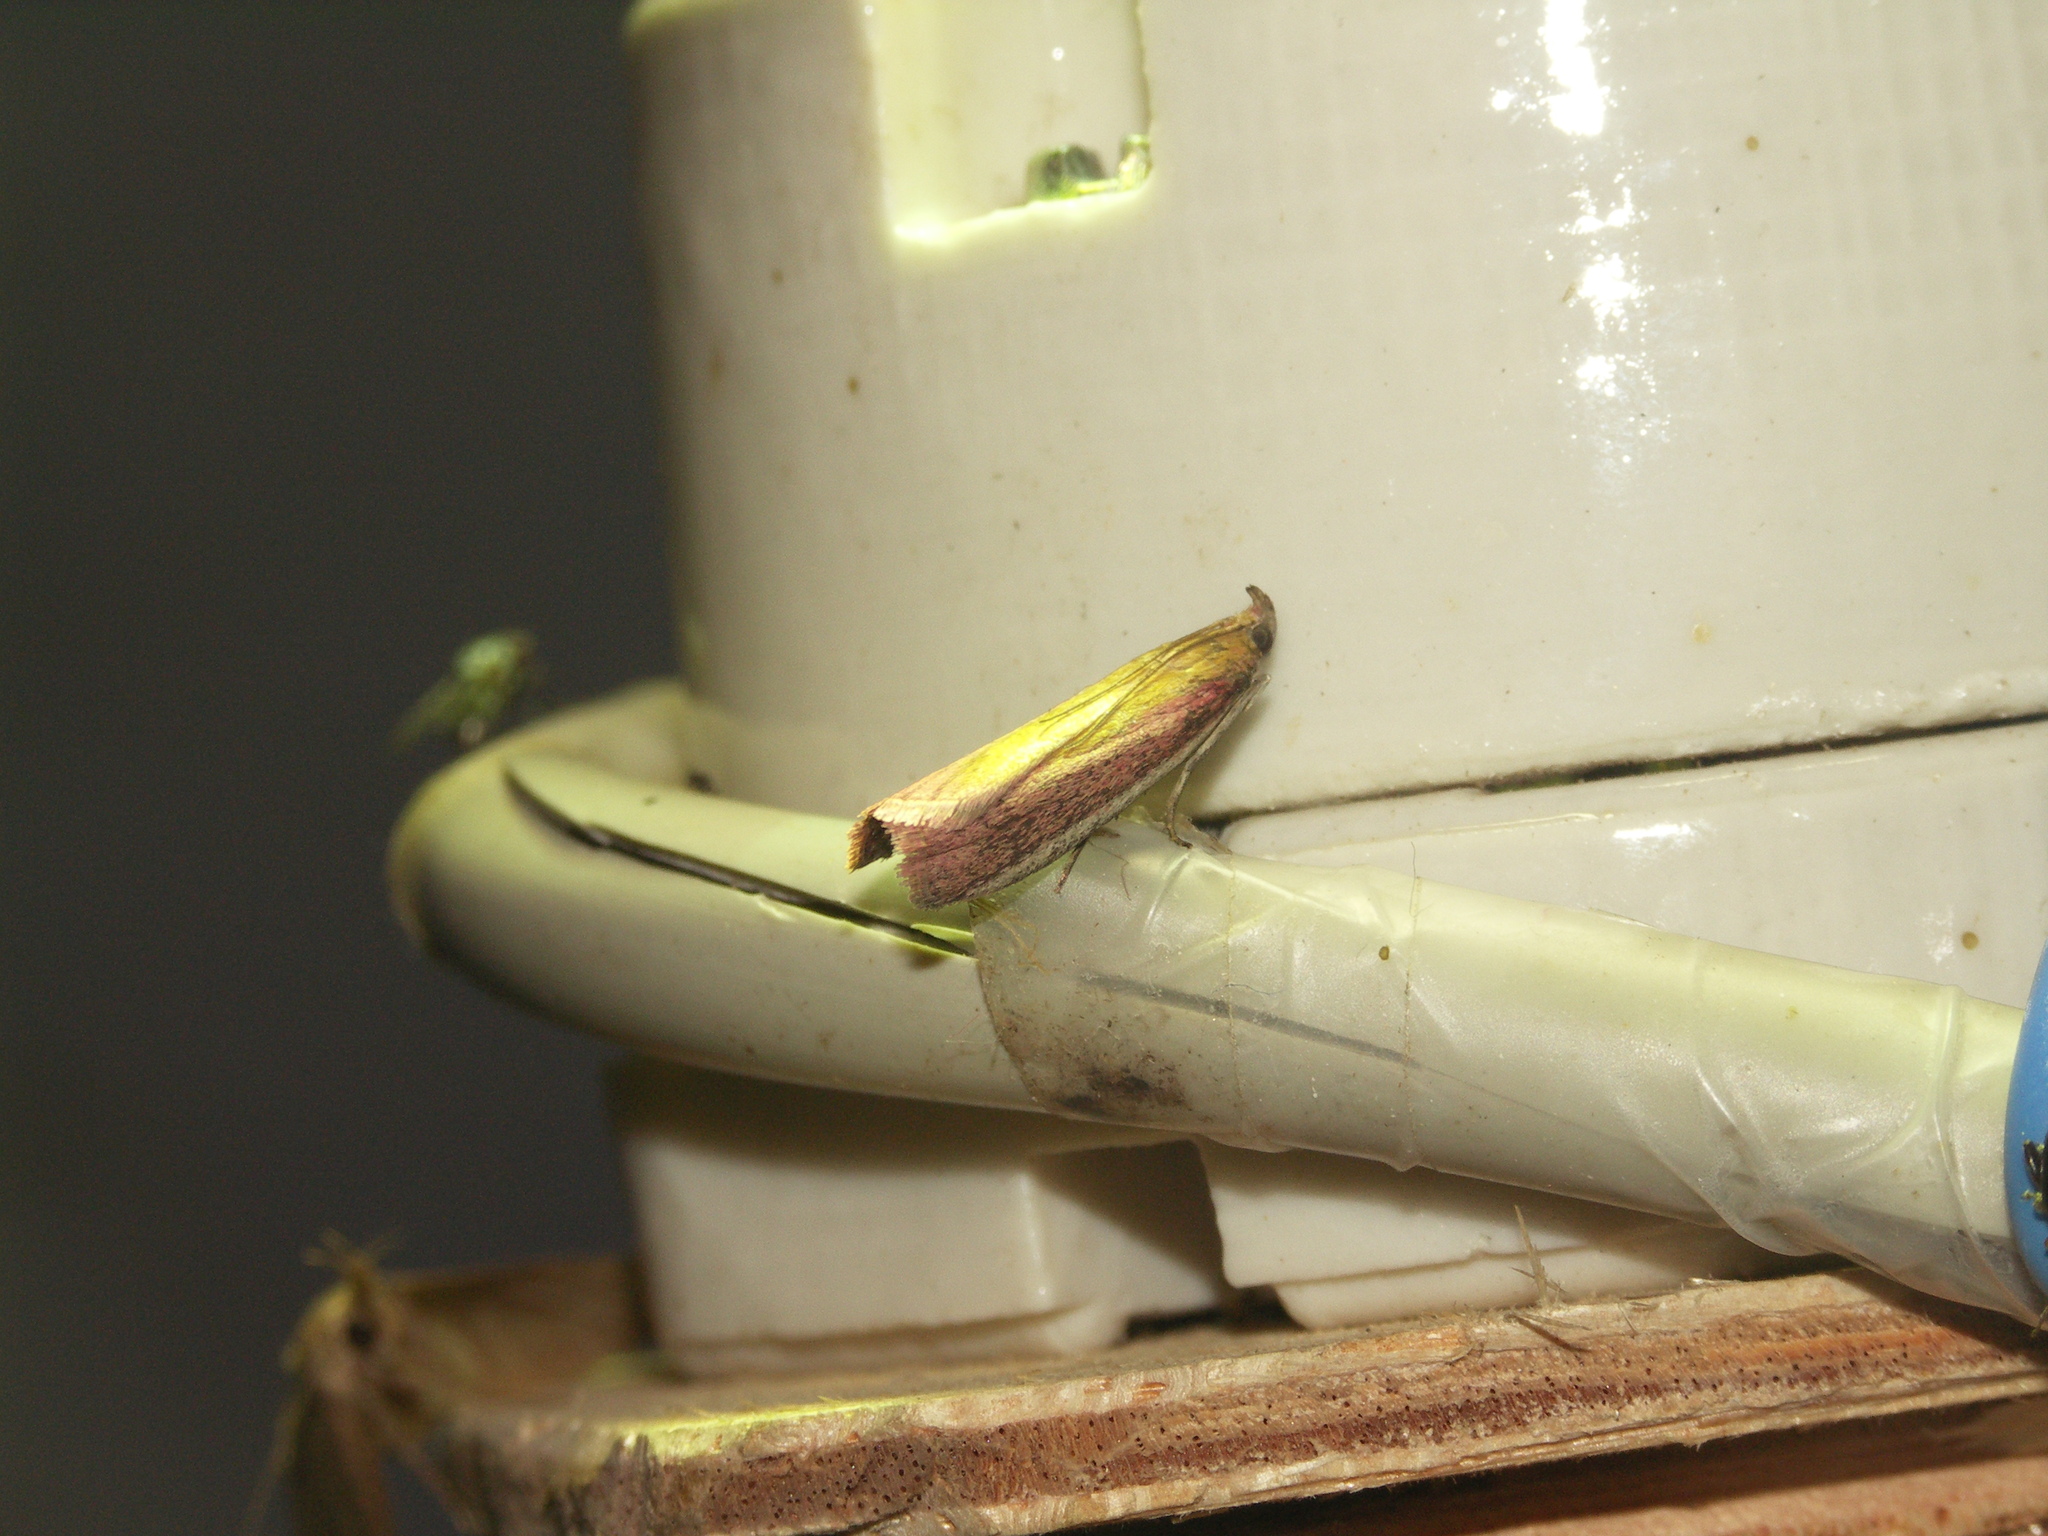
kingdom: Animalia
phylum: Arthropoda
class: Insecta
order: Lepidoptera
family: Pyralidae
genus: Oncocera
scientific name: Oncocera semirubella
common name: Rosy-striped knot-horn
